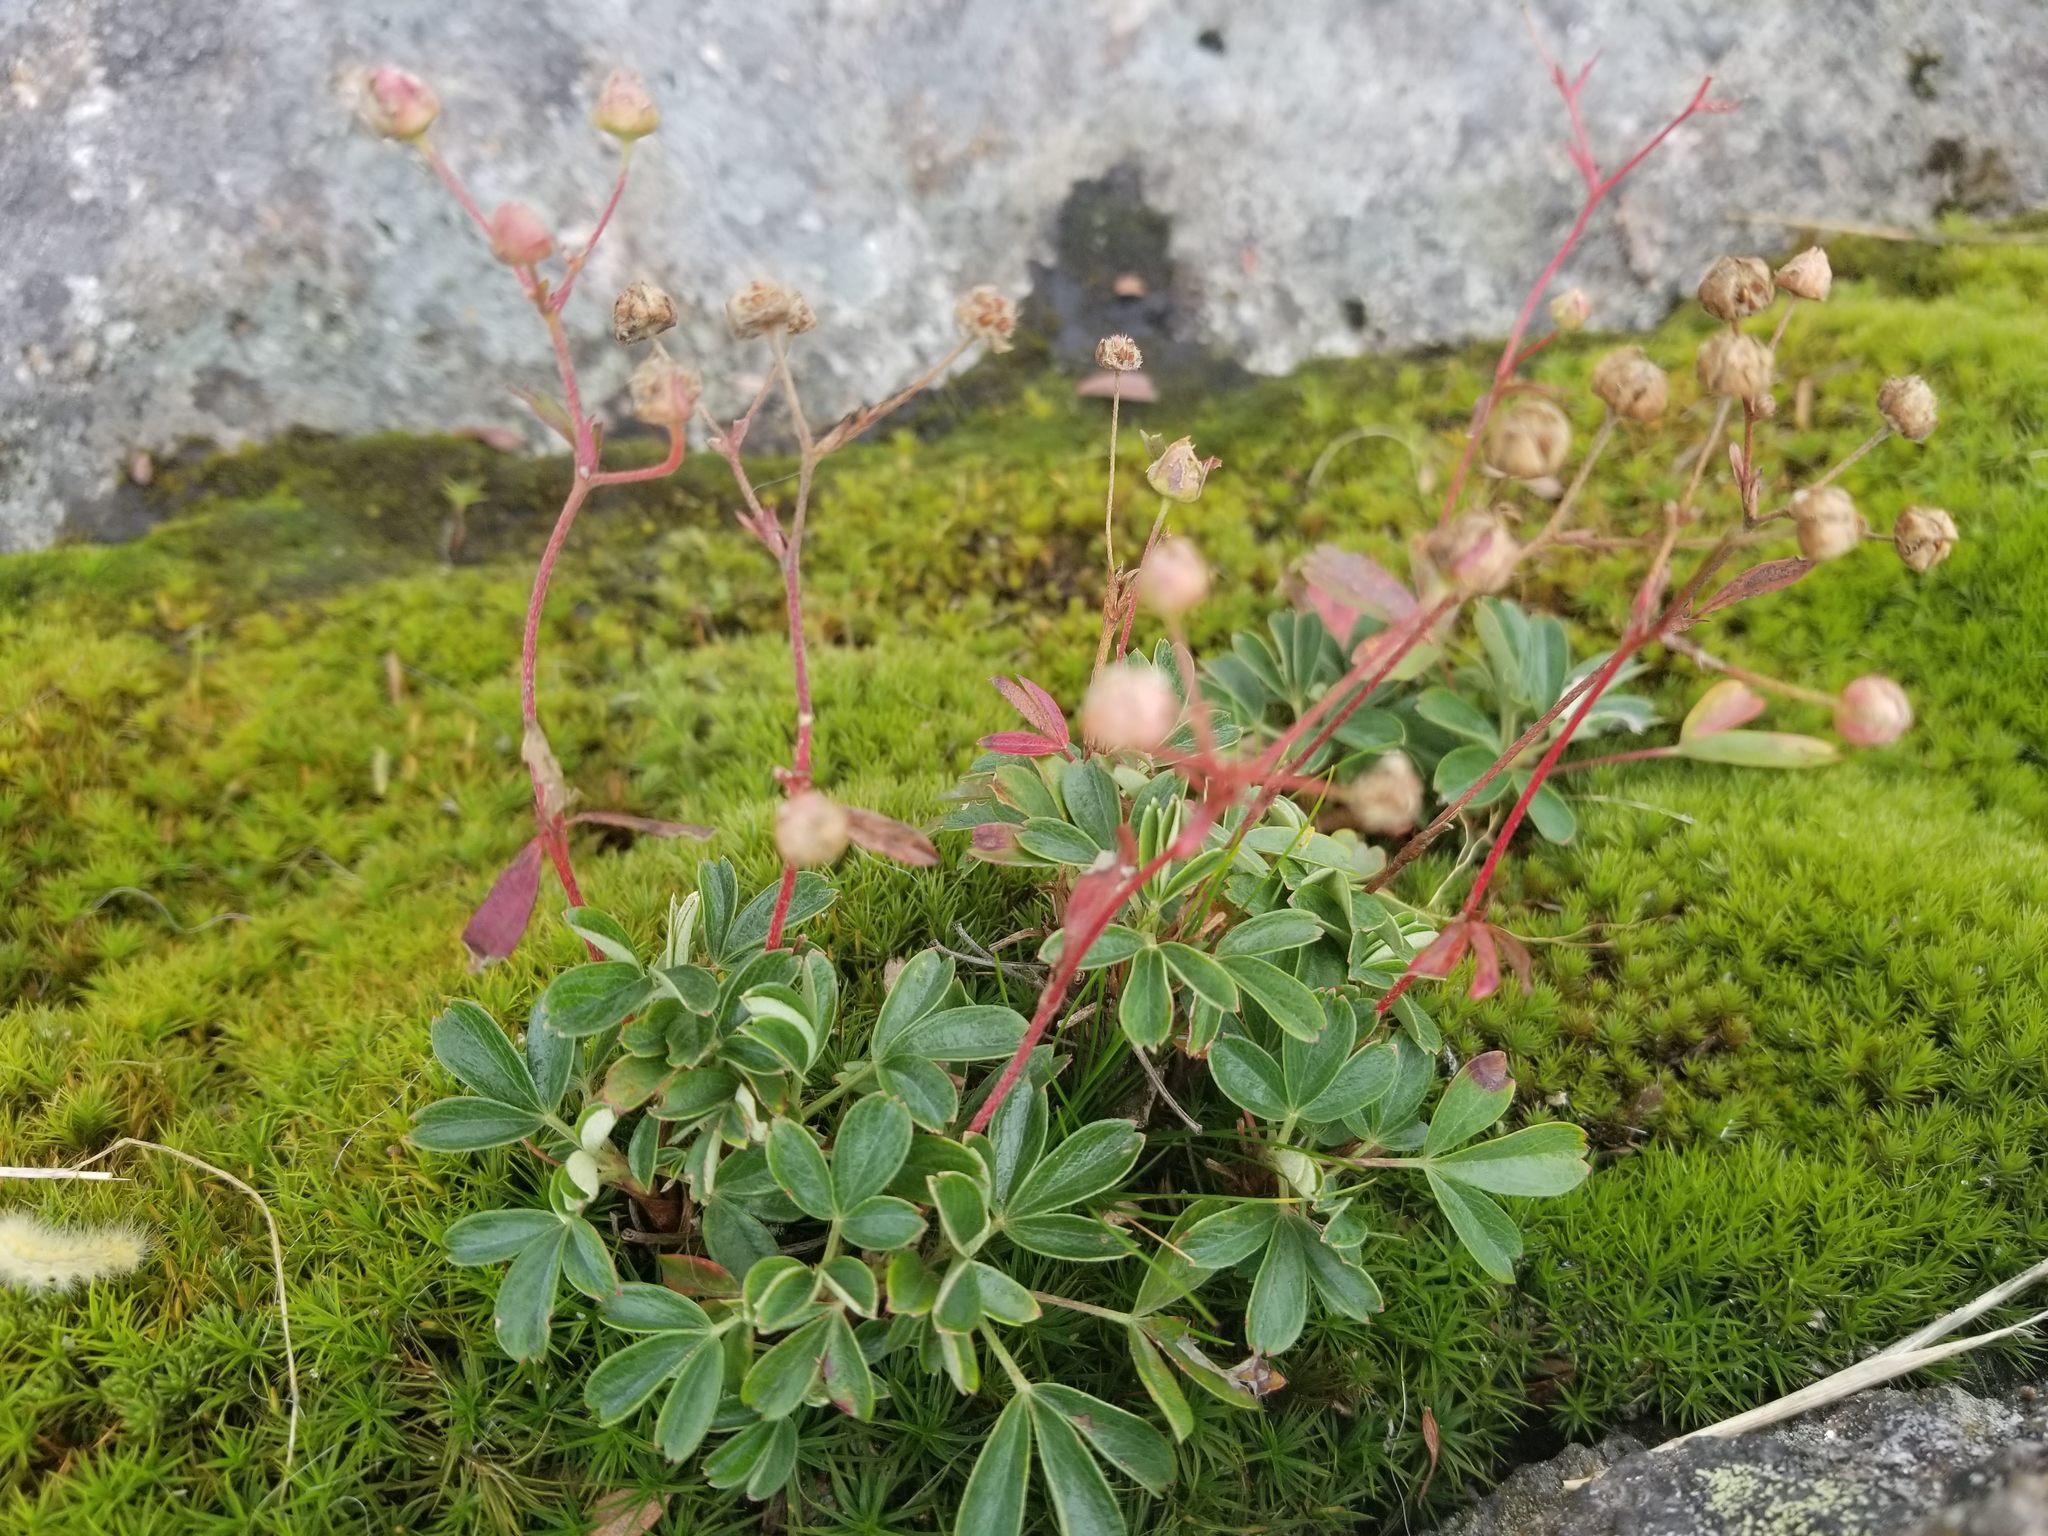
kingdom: Plantae
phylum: Tracheophyta
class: Magnoliopsida
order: Rosales
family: Rosaceae
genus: Sibbaldia
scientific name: Sibbaldia tridentata
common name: Three-toothed cinquefoil
